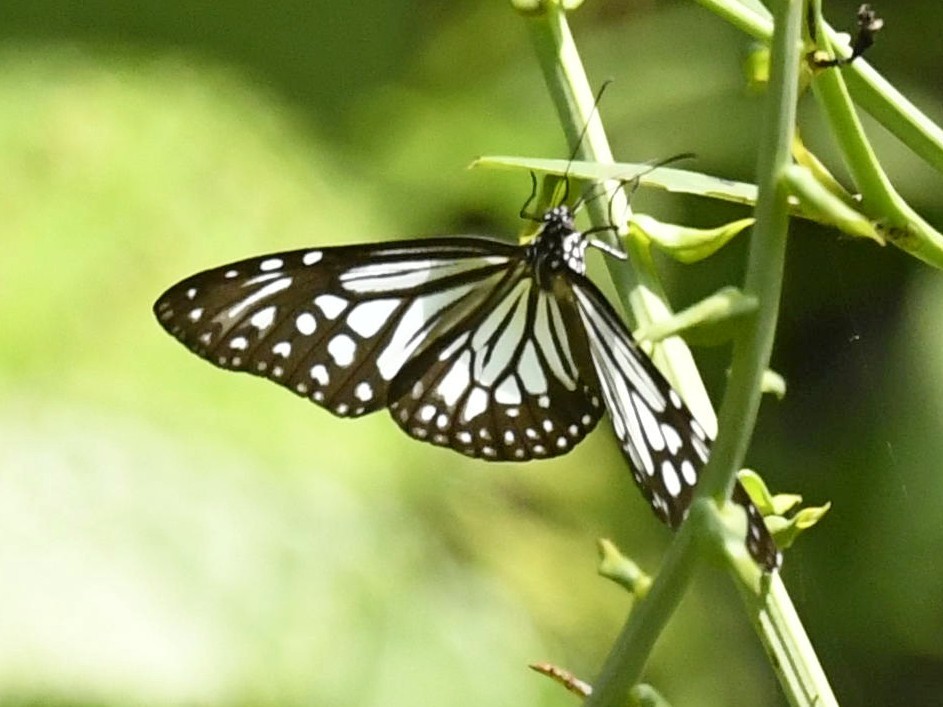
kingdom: Animalia
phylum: Arthropoda
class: Insecta
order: Lepidoptera
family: Nymphalidae
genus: Parantica
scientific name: Parantica aglea
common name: Glassy tiger
